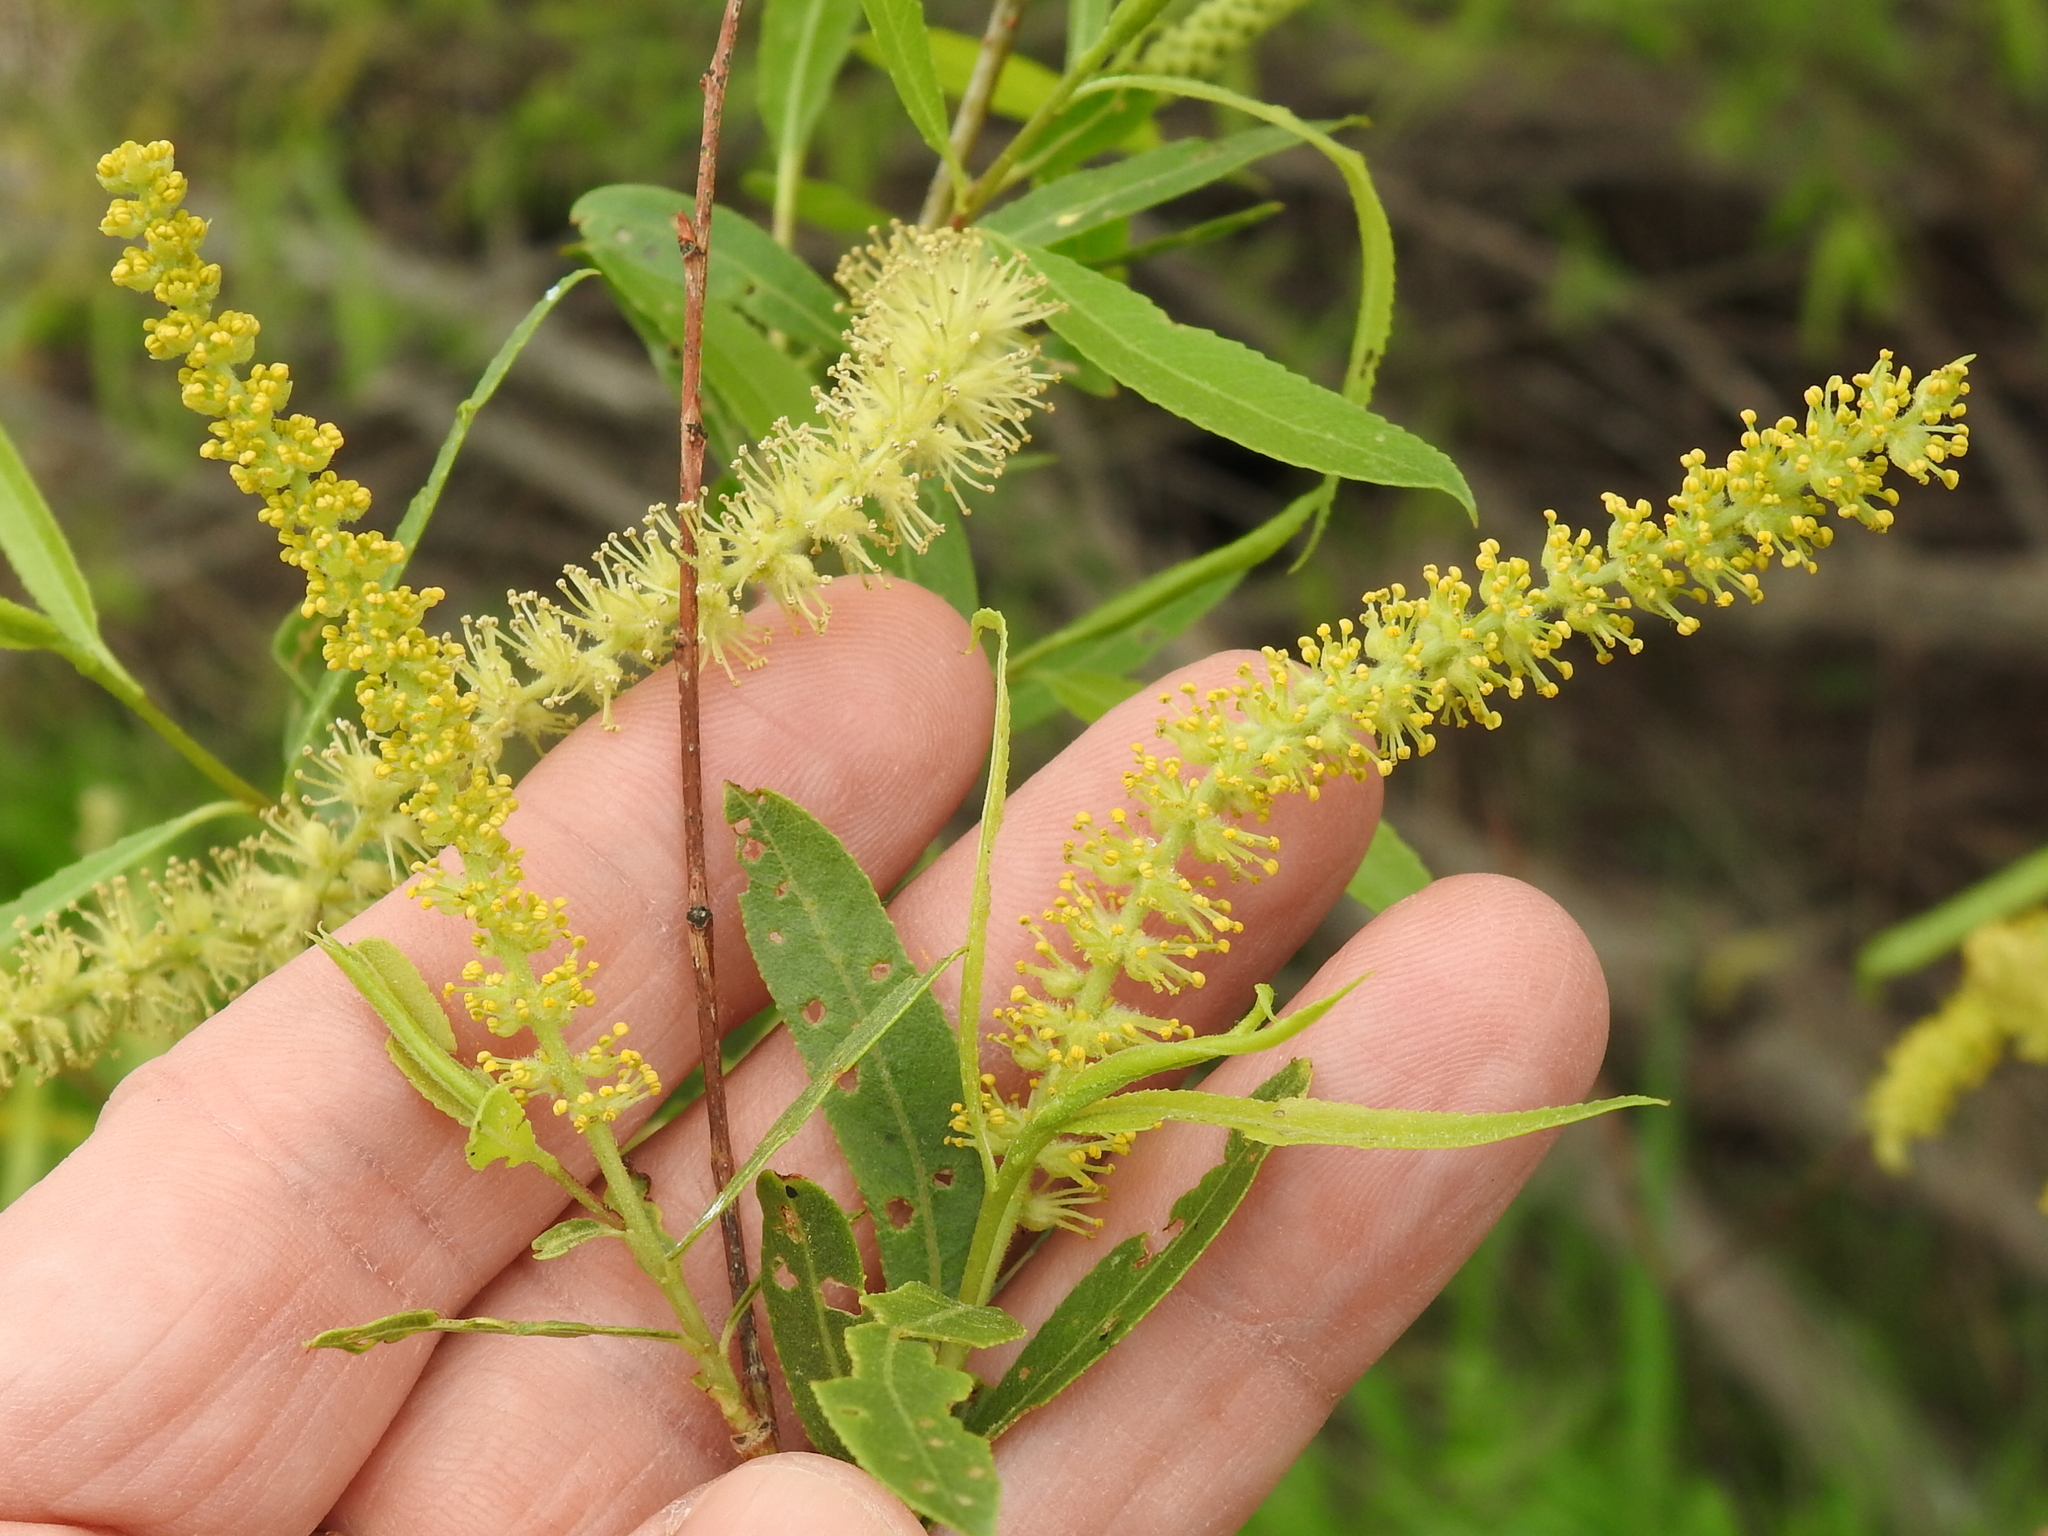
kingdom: Plantae
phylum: Tracheophyta
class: Magnoliopsida
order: Malpighiales
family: Salicaceae
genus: Salix
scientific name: Salix nigra
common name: Black willow
